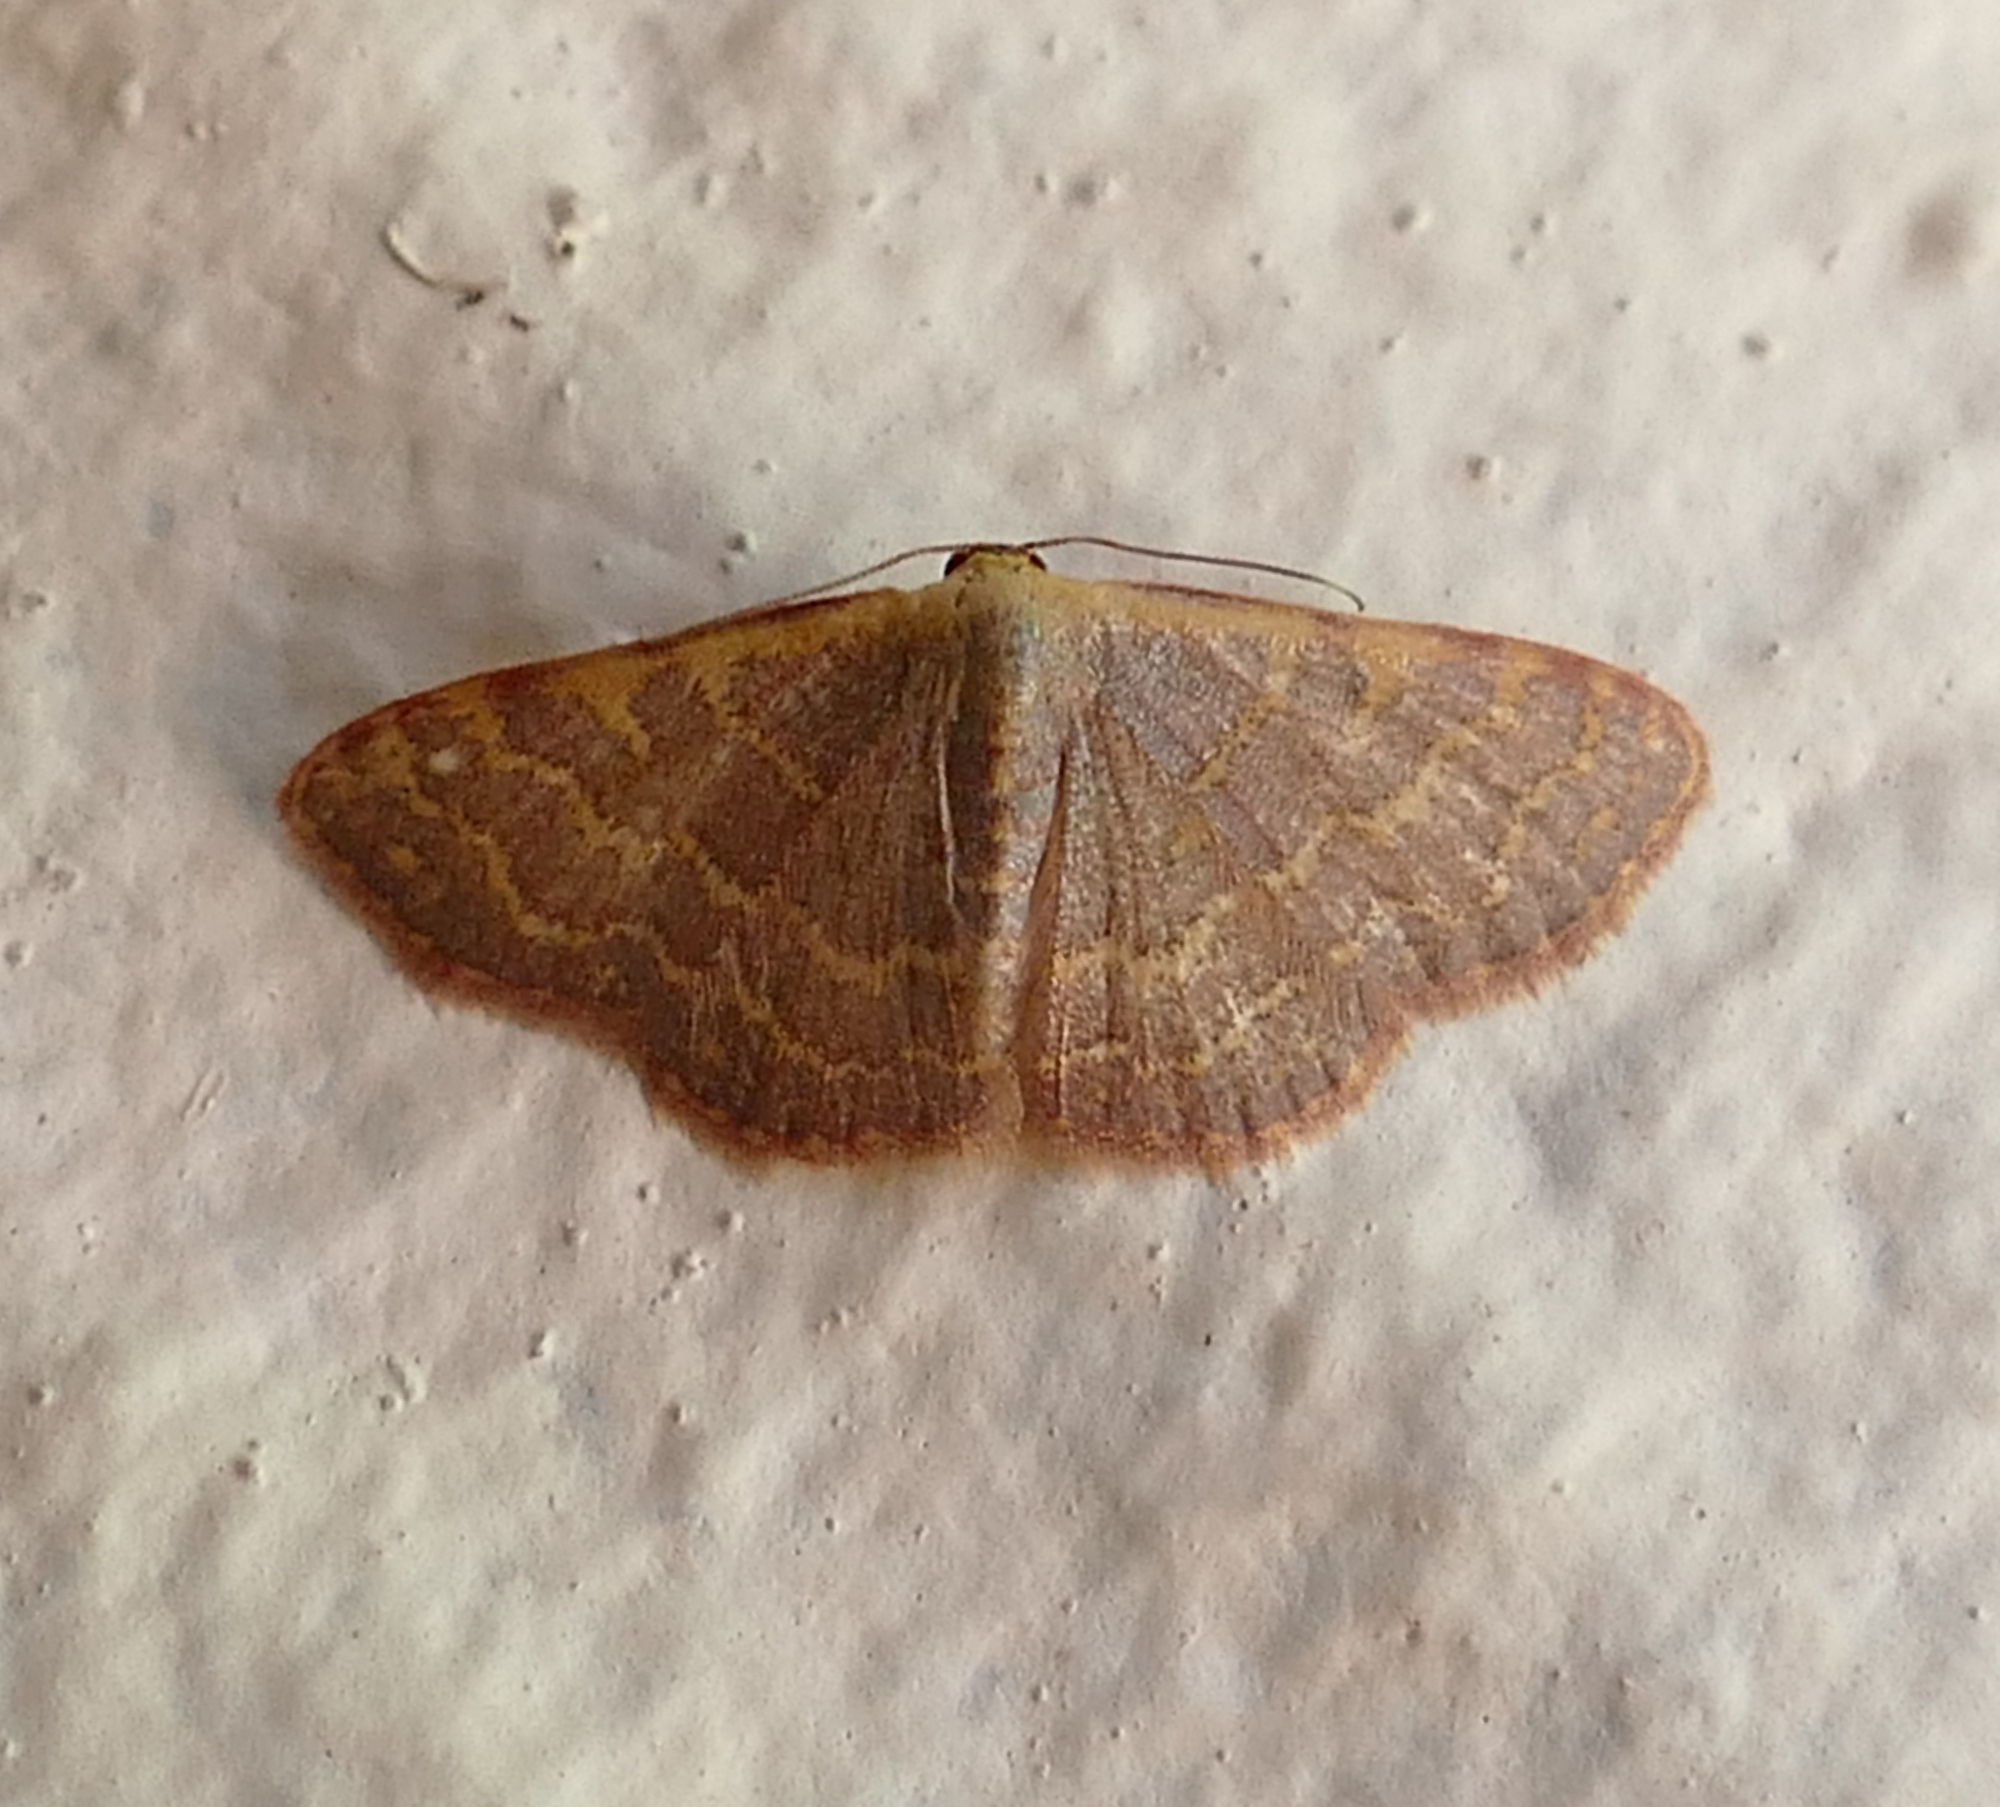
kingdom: Animalia
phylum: Arthropoda
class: Insecta
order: Lepidoptera
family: Geometridae
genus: Leptostales
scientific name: Leptostales pannaria
